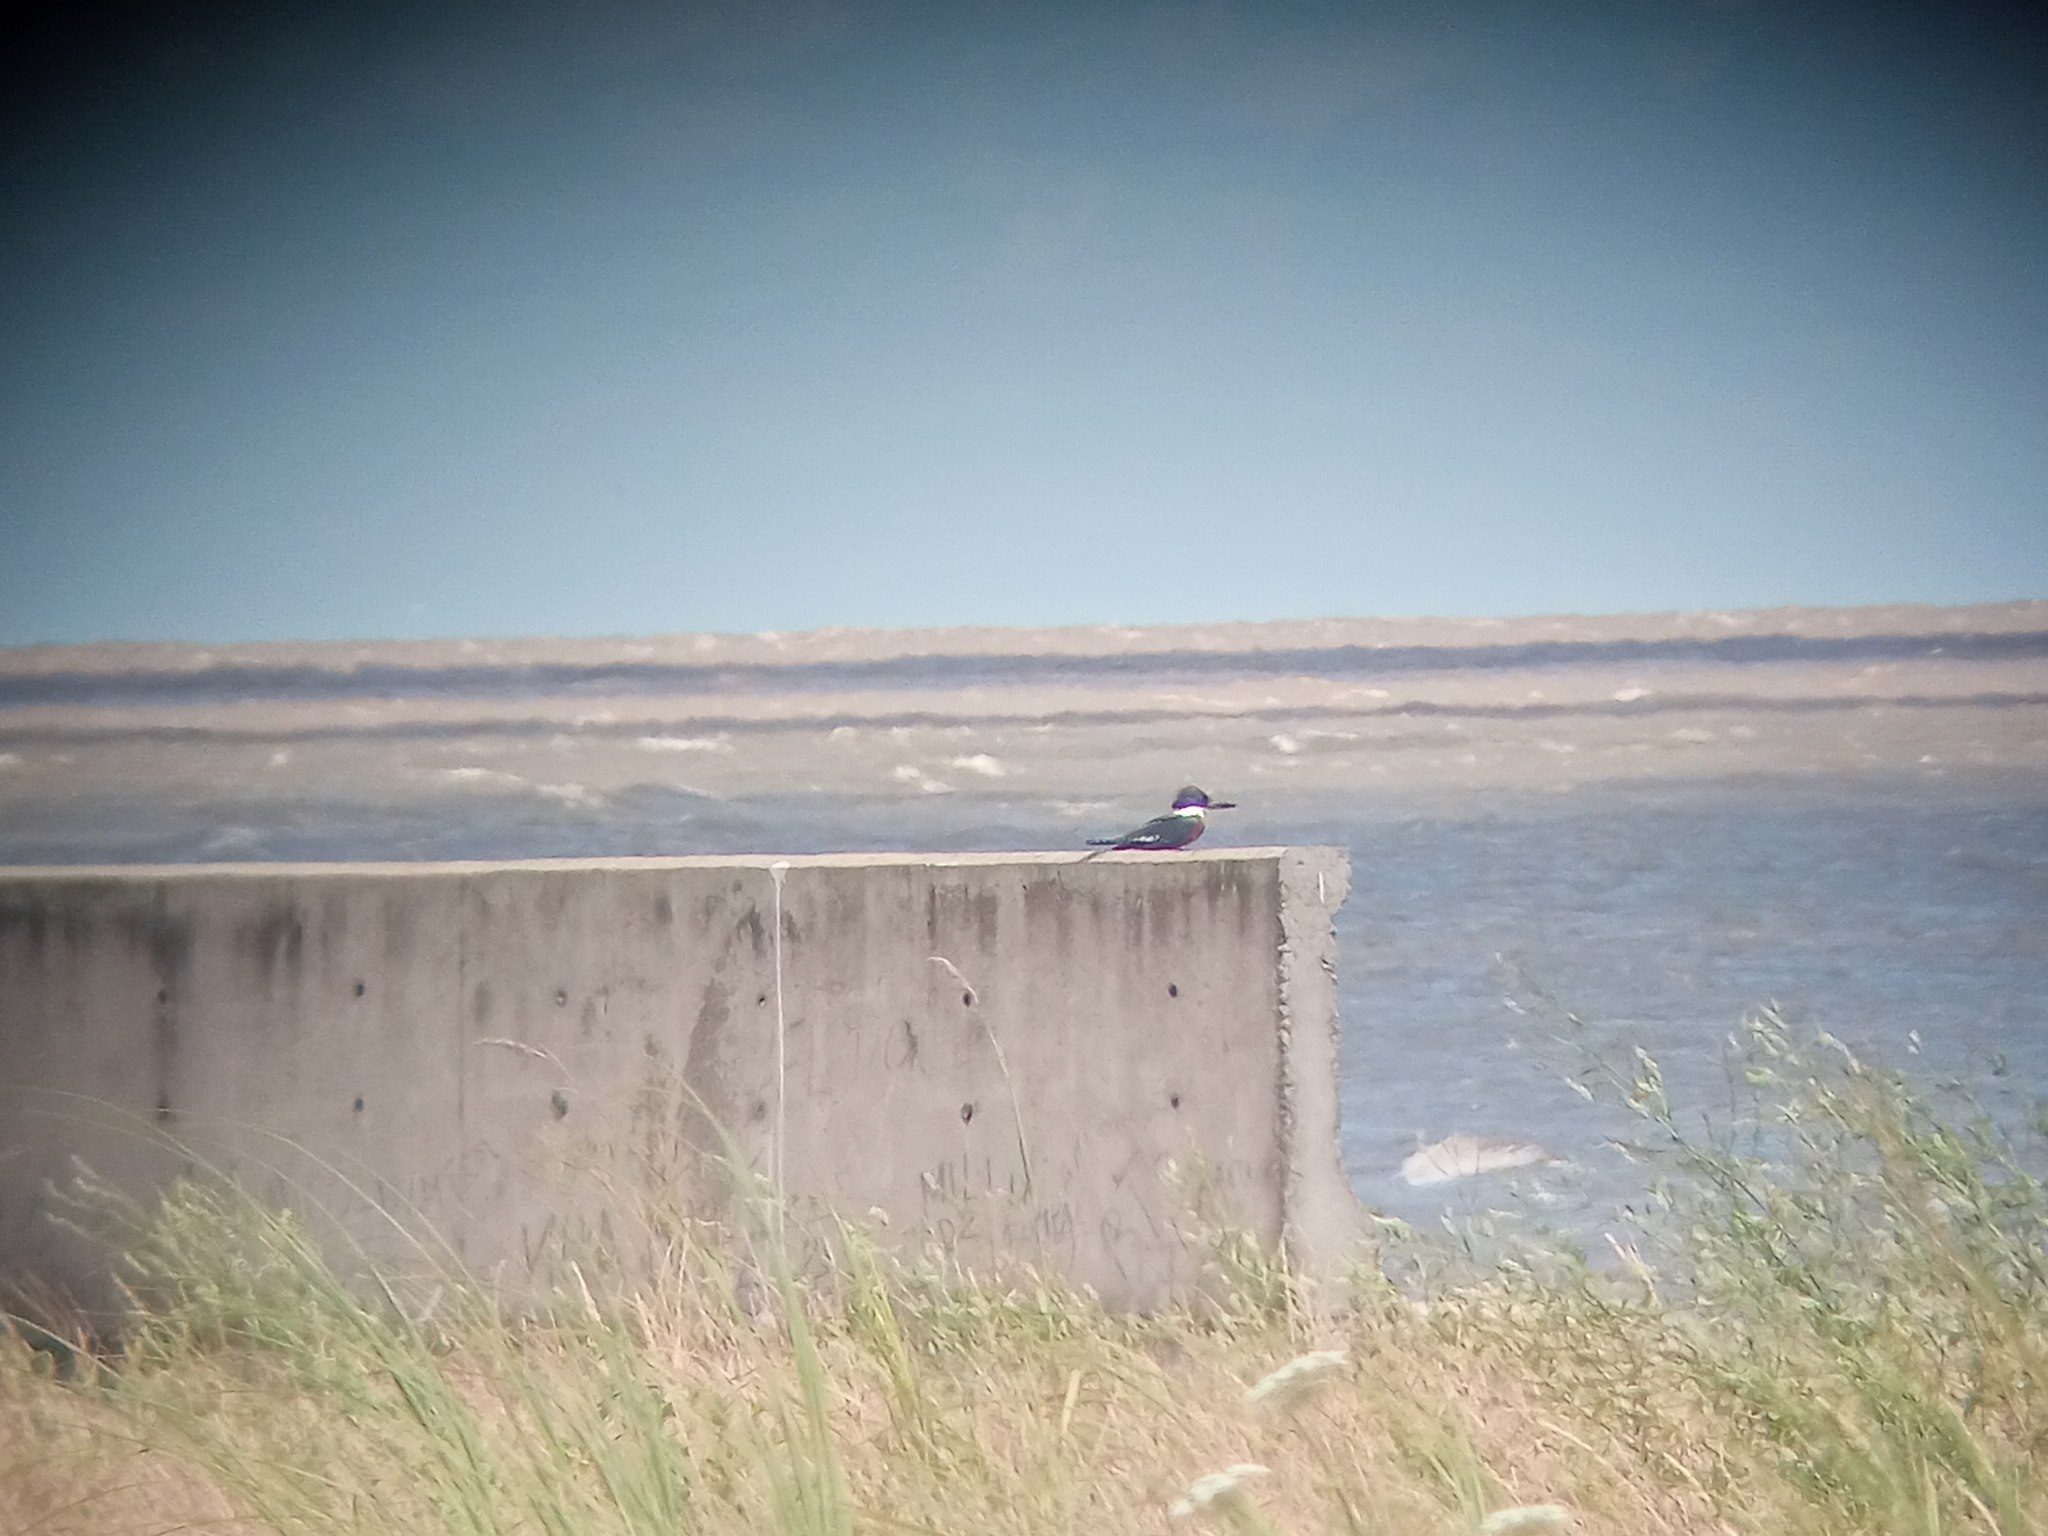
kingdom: Animalia
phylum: Chordata
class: Aves
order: Coraciiformes
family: Alcedinidae
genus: Megaceryle
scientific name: Megaceryle torquata
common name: Ringed kingfisher
